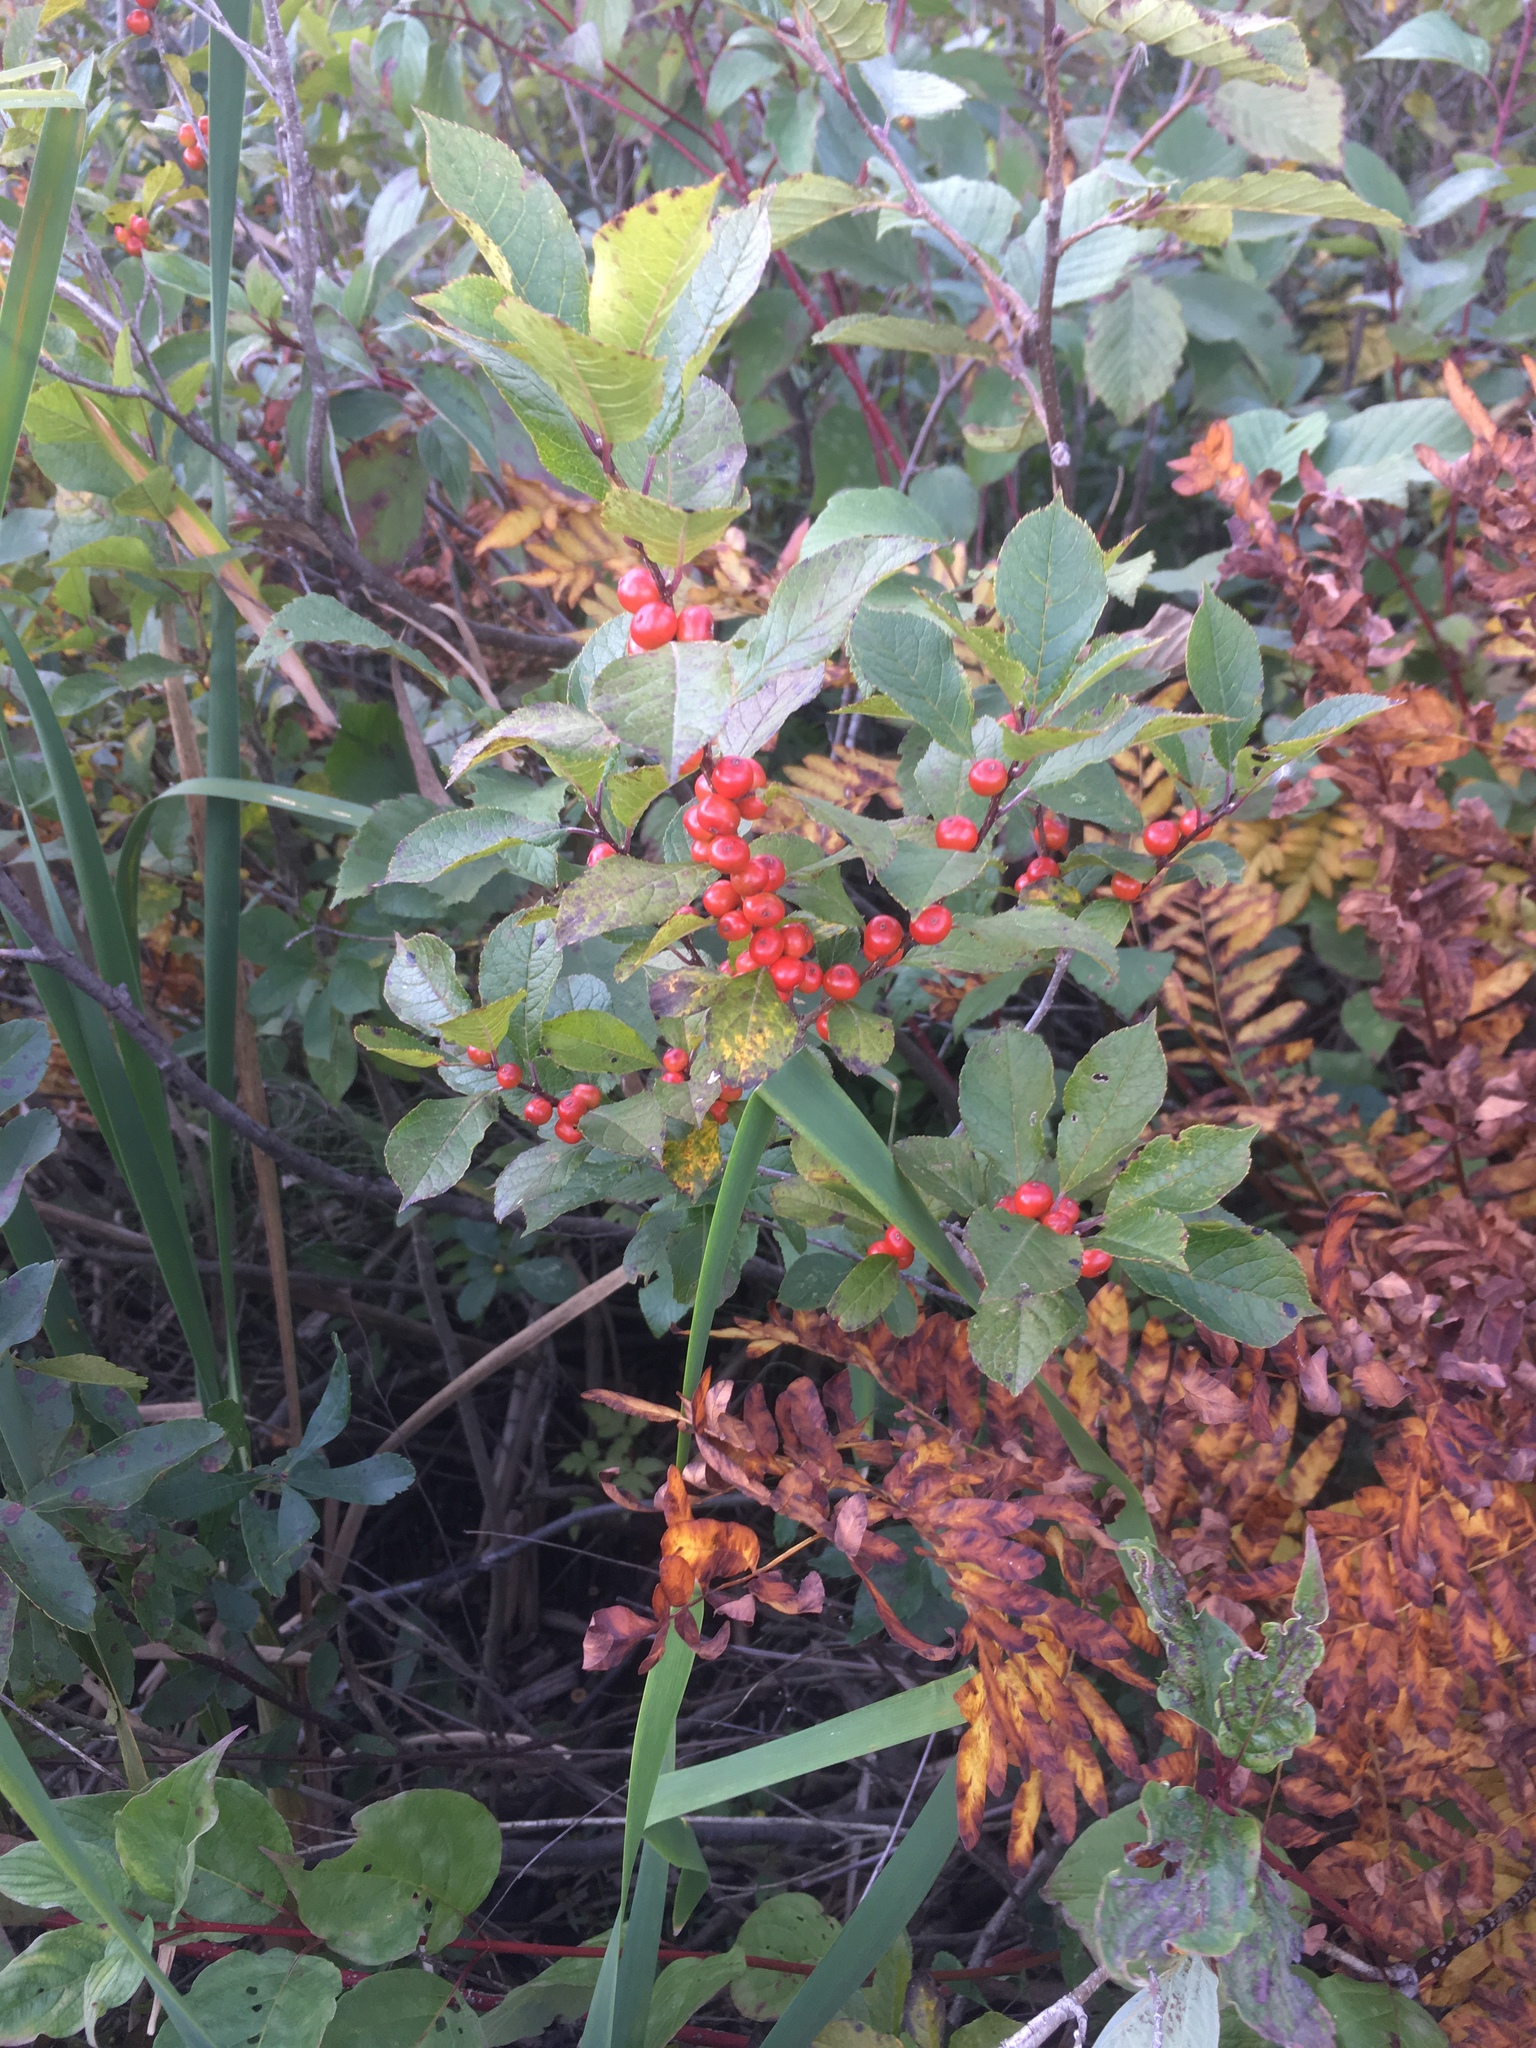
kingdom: Plantae
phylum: Tracheophyta
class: Magnoliopsida
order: Aquifoliales
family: Aquifoliaceae
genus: Ilex
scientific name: Ilex verticillata
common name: Virginia winterberry
